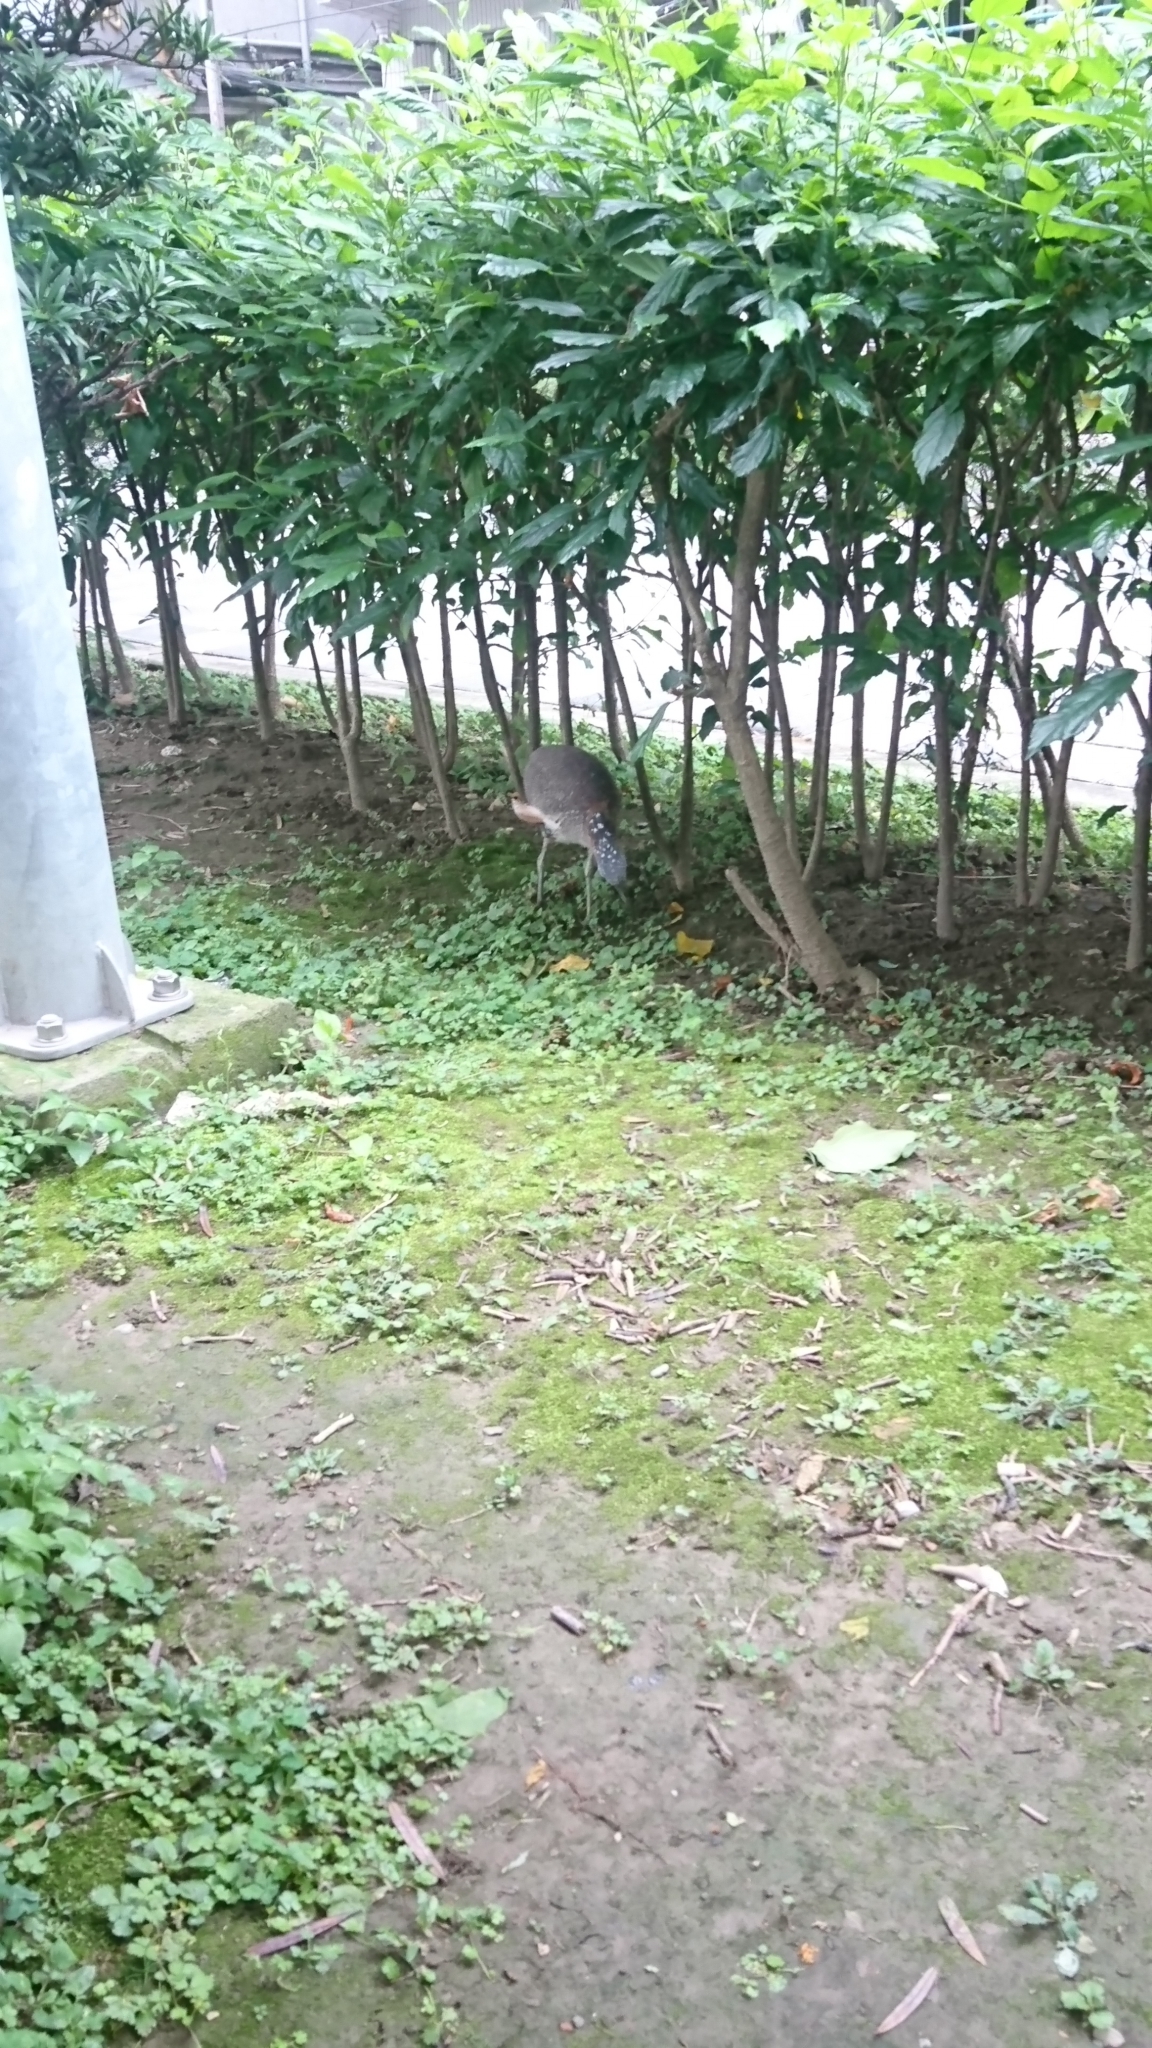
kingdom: Animalia
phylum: Chordata
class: Aves
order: Pelecaniformes
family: Ardeidae
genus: Gorsachius
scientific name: Gorsachius melanolophus
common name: Malayan night heron
